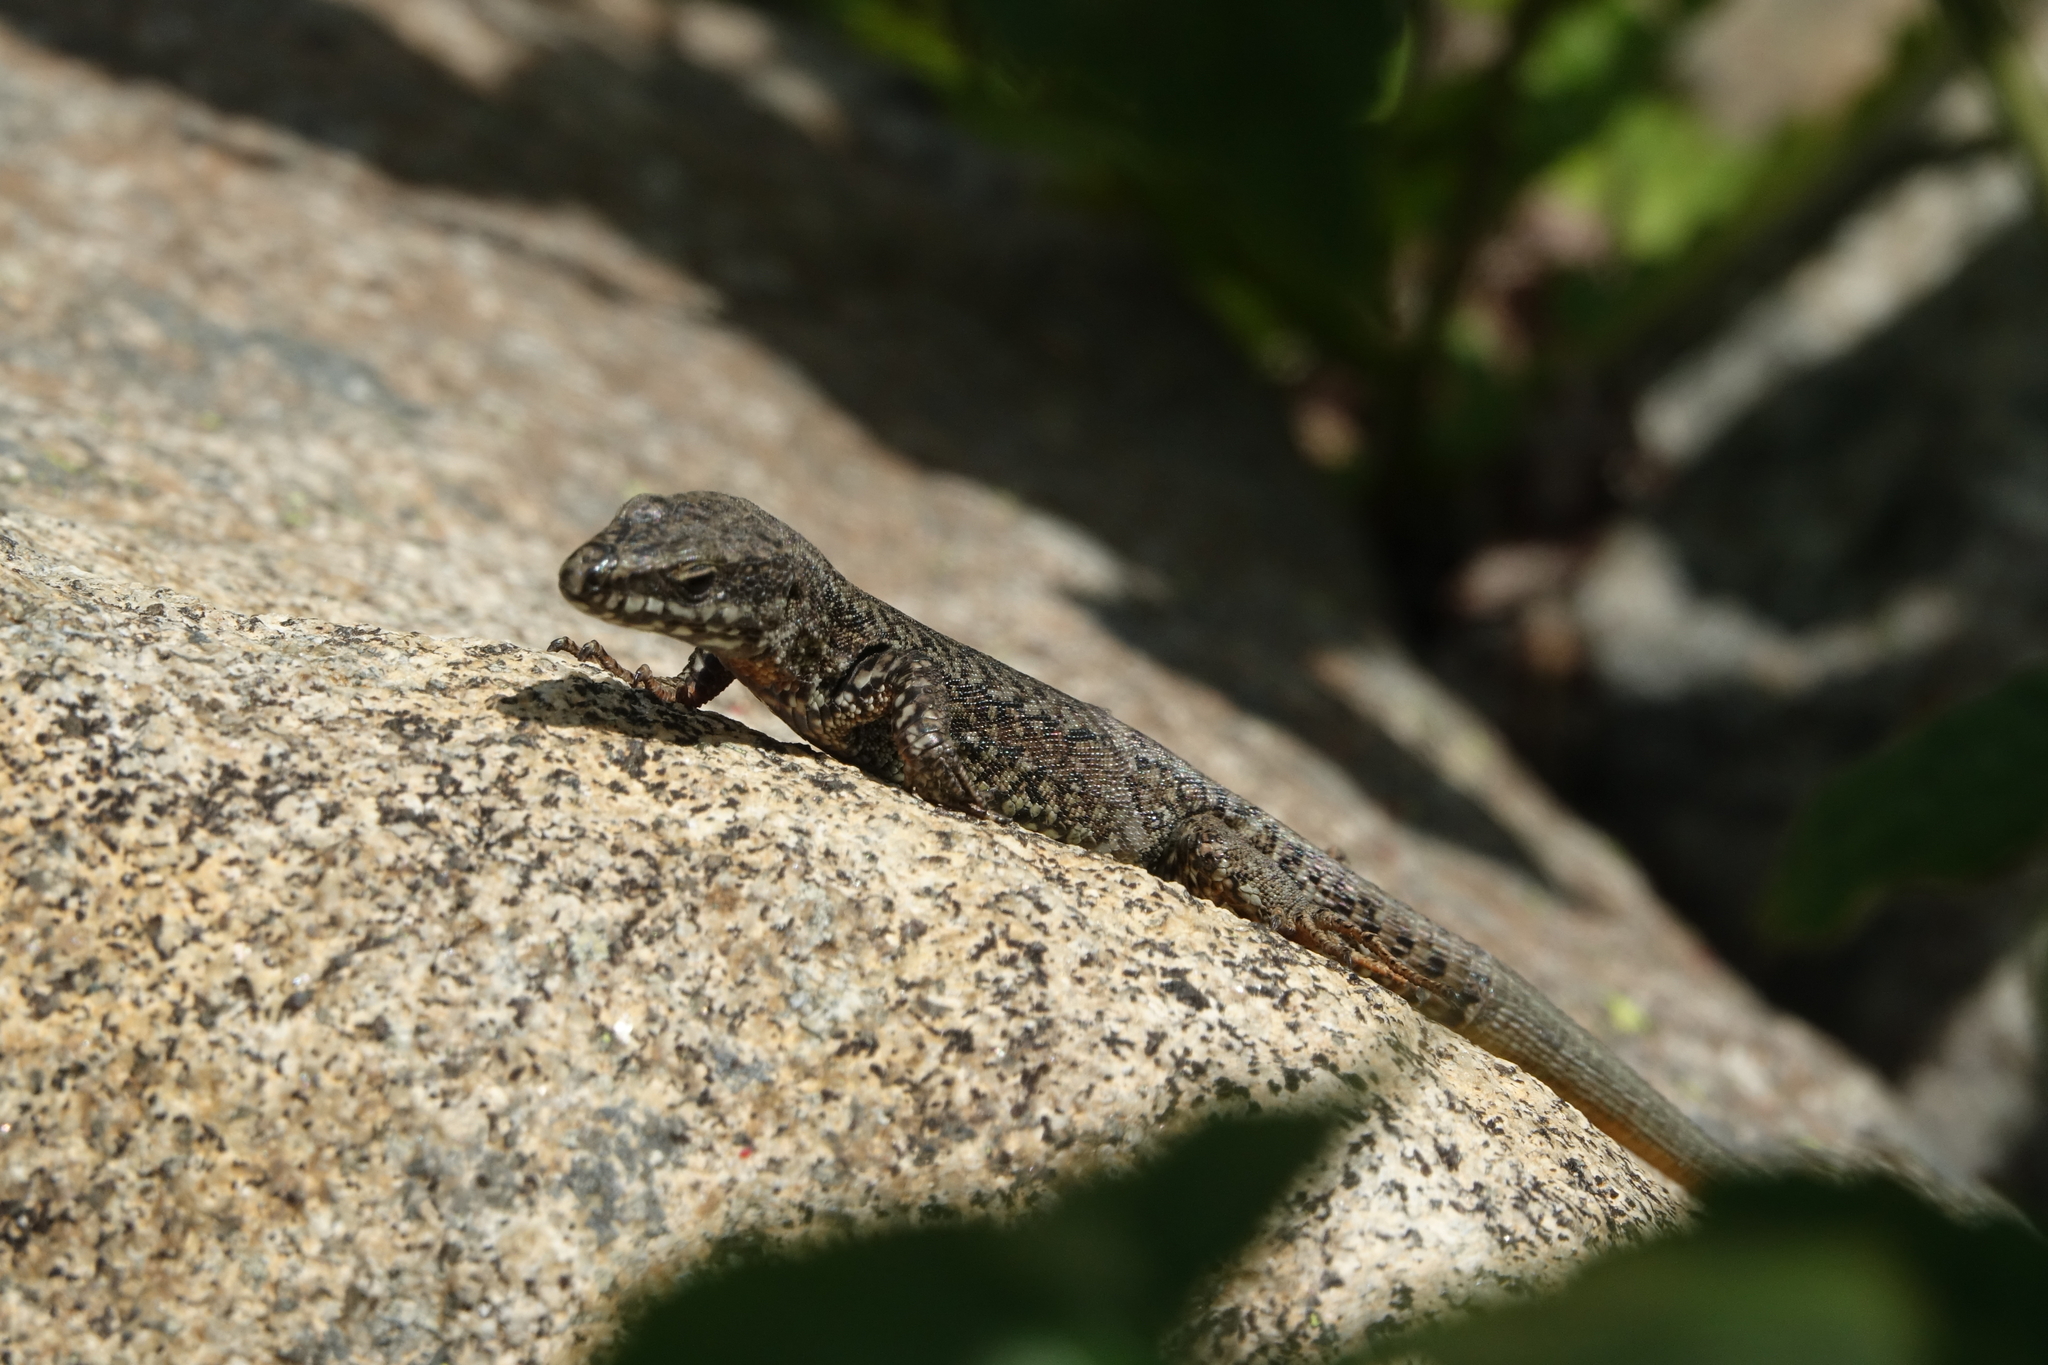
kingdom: Animalia
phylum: Chordata
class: Squamata
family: Lacertidae
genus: Podarcis
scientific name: Podarcis muralis
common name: Common wall lizard
